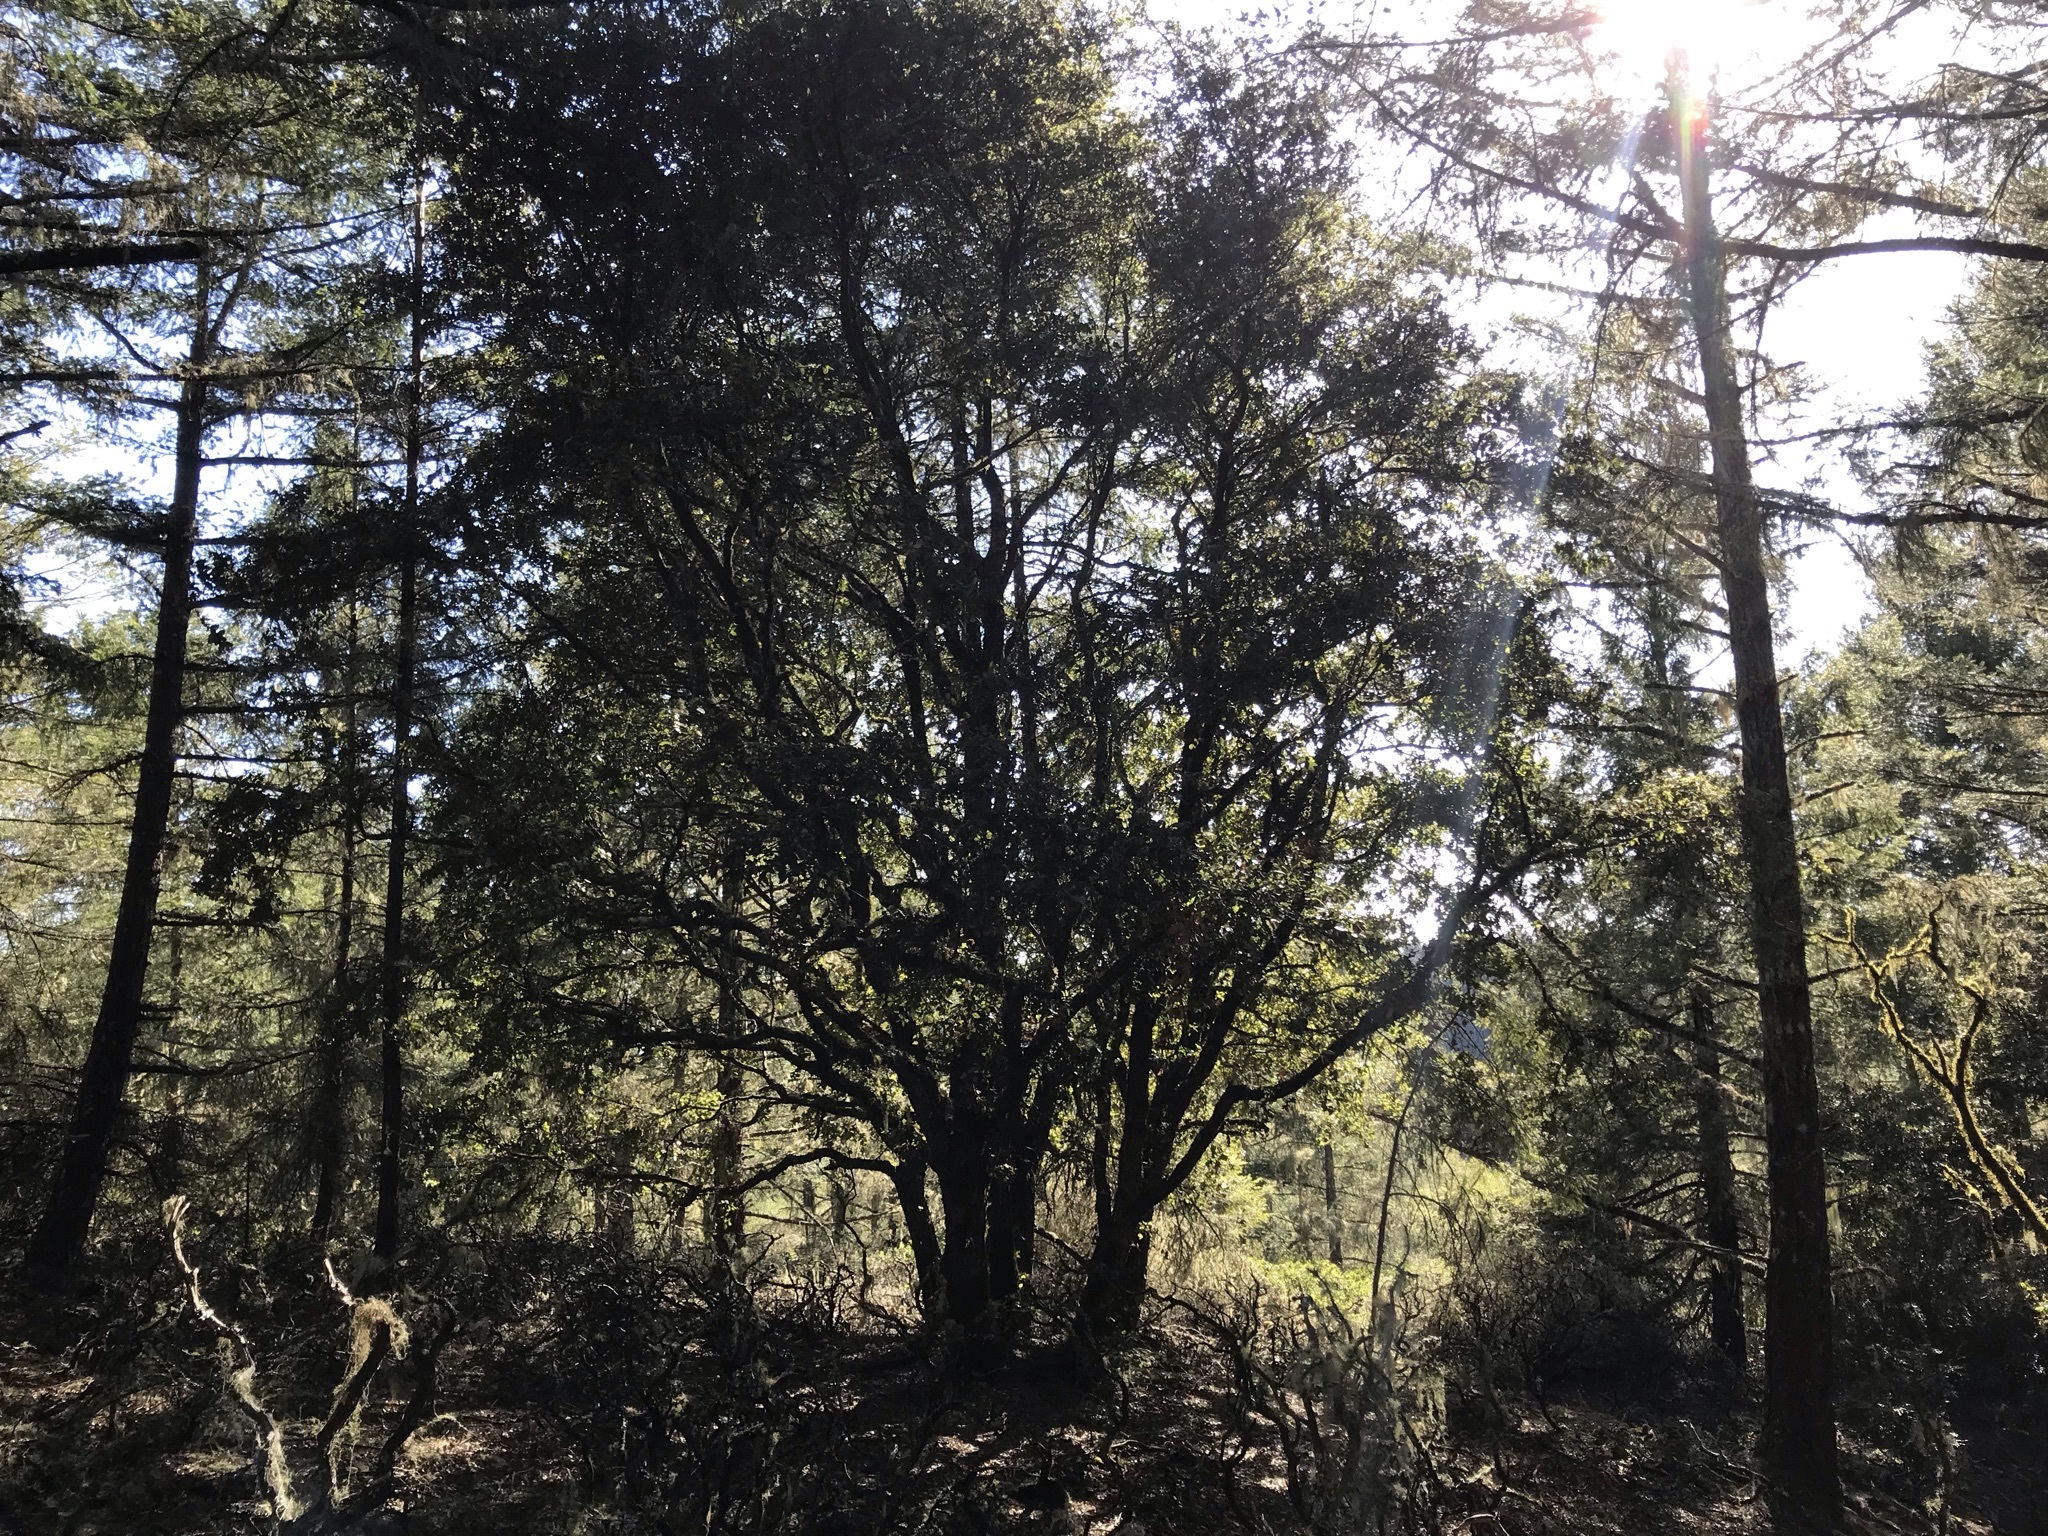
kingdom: Plantae
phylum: Tracheophyta
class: Magnoliopsida
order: Fagales
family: Fagaceae
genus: Quercus
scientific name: Quercus chrysolepis
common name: Canyon live oak
